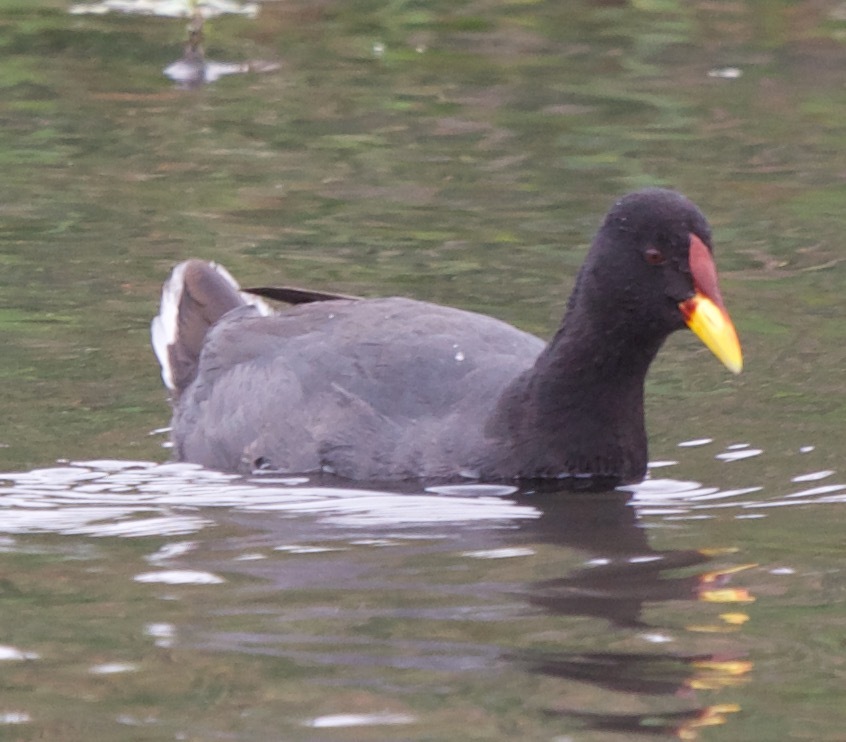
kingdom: Animalia
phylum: Chordata
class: Aves
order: Gruiformes
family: Rallidae
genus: Fulica
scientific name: Fulica rufifrons
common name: Red-fronted coot
